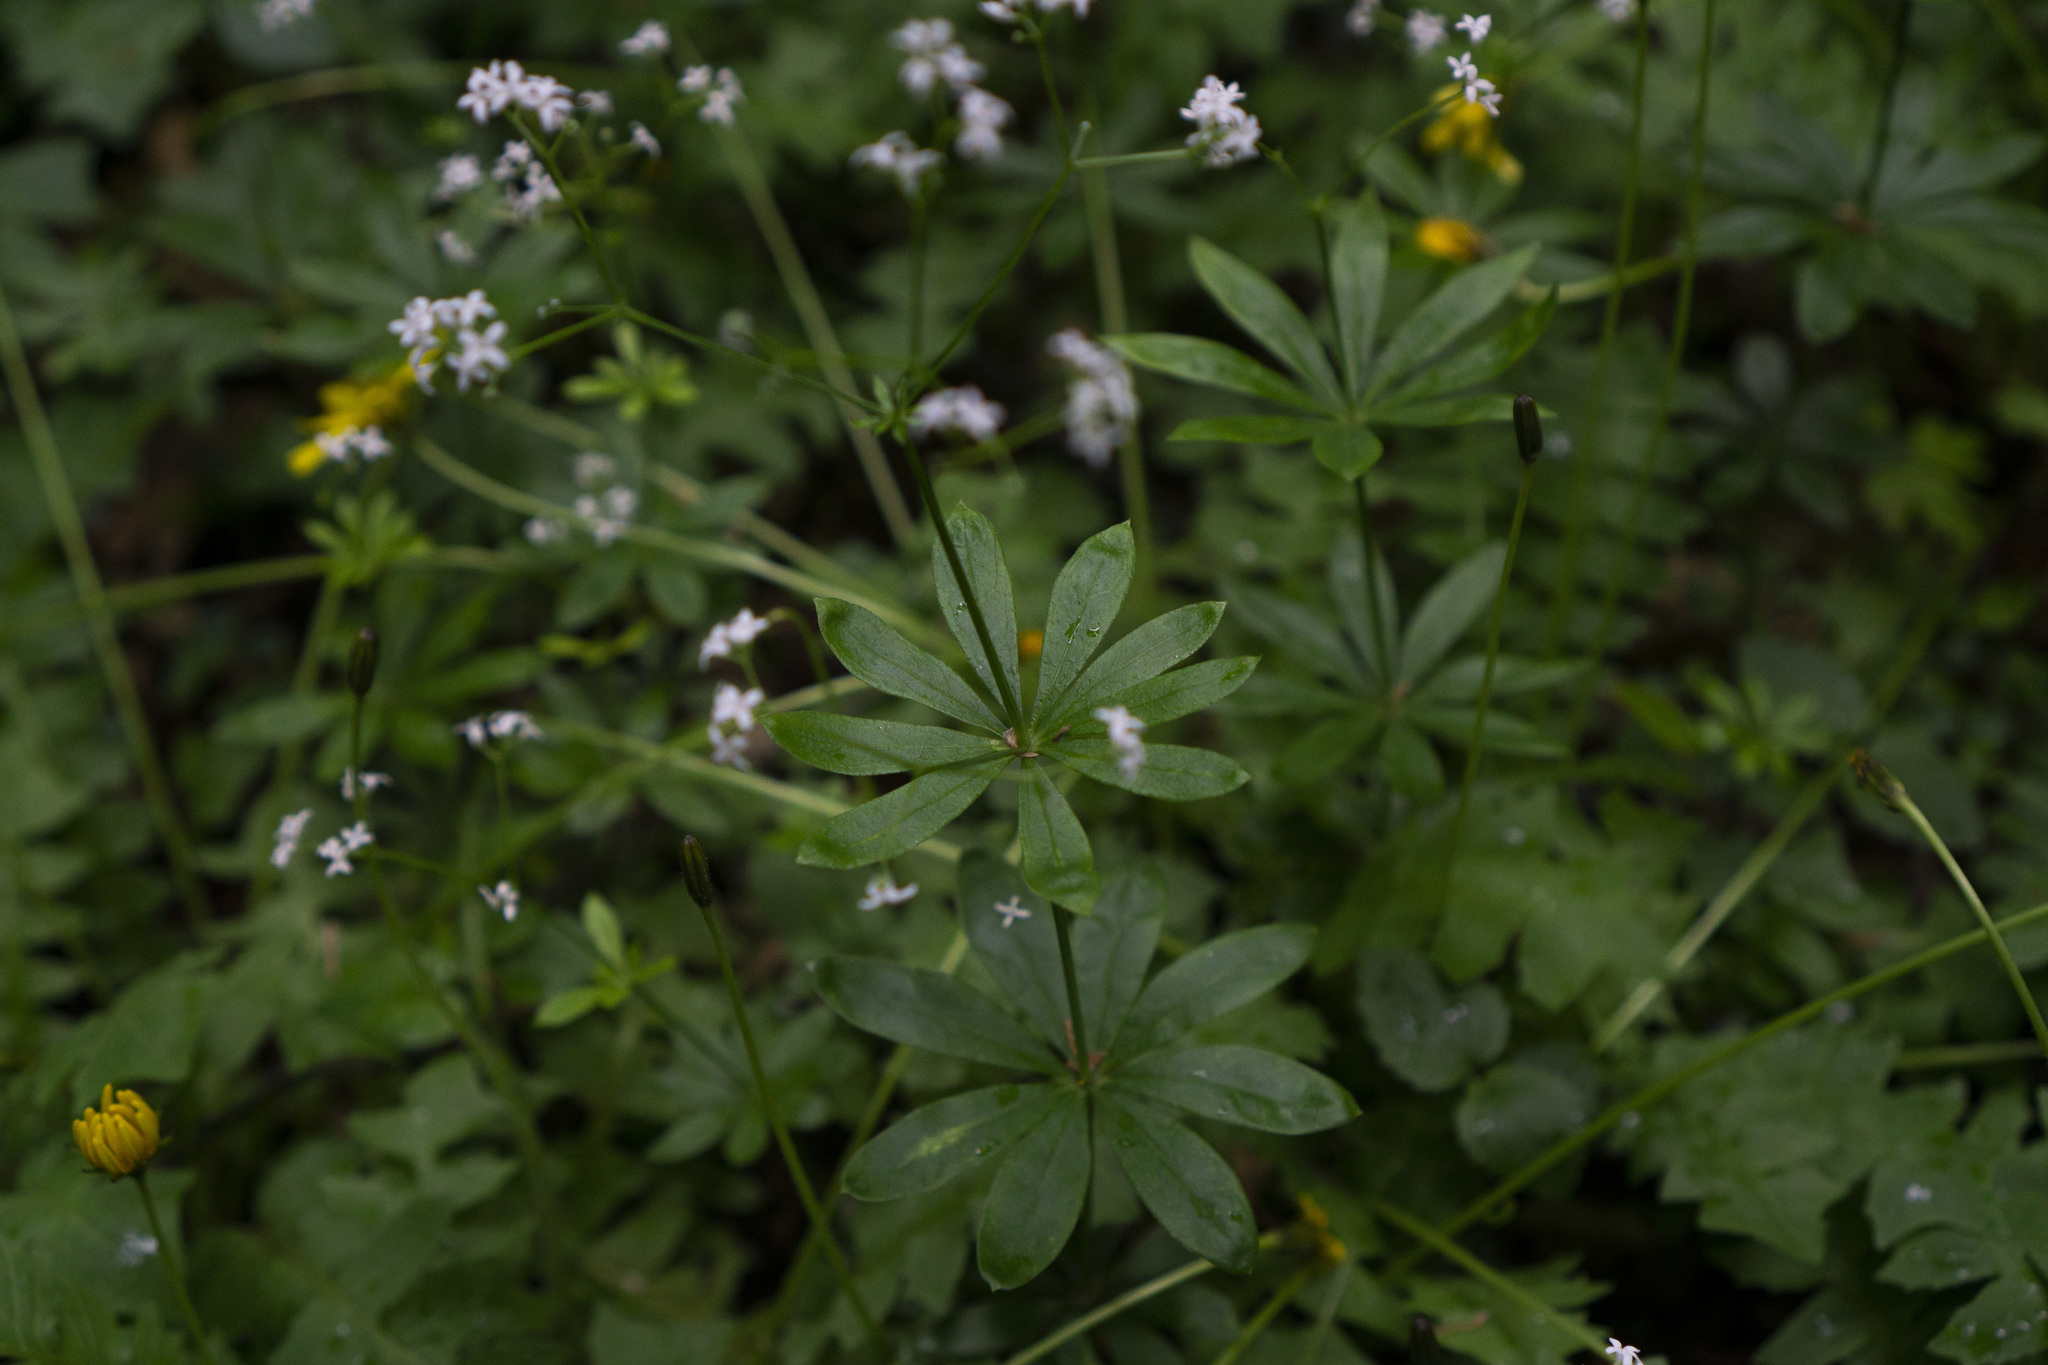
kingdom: Plantae
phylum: Tracheophyta
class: Magnoliopsida
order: Gentianales
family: Rubiaceae
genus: Galium
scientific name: Galium odoratum
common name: Sweet woodruff
